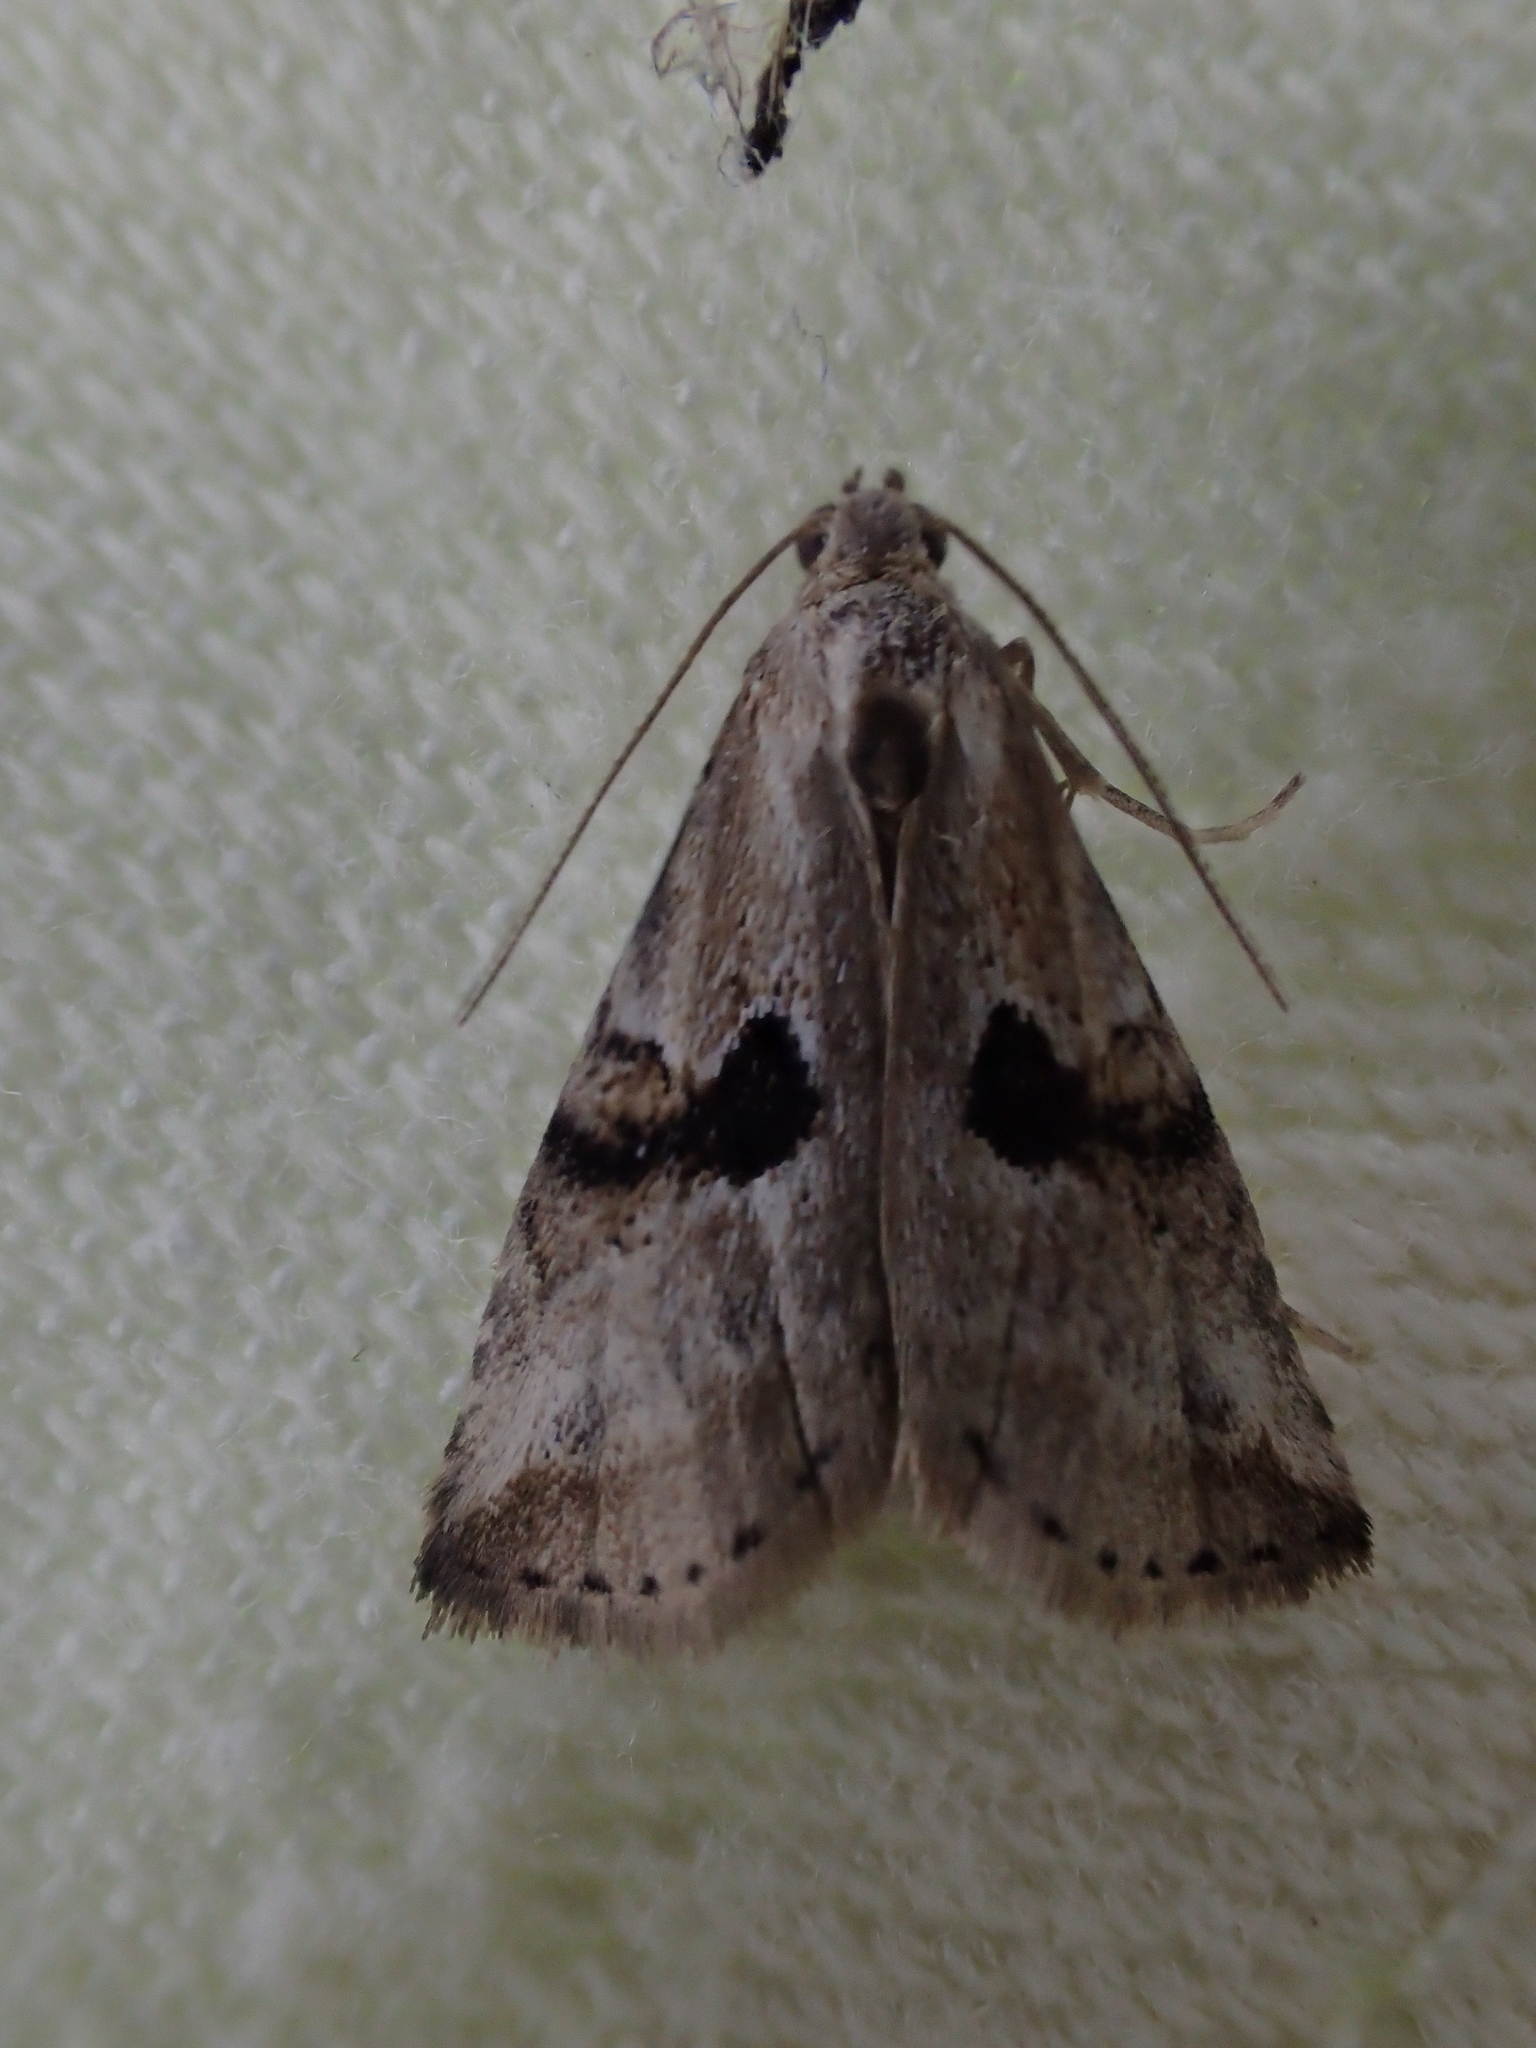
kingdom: Animalia
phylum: Arthropoda
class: Insecta
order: Lepidoptera
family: Erebidae
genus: Zebeeba
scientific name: Zebeeba falsalis
